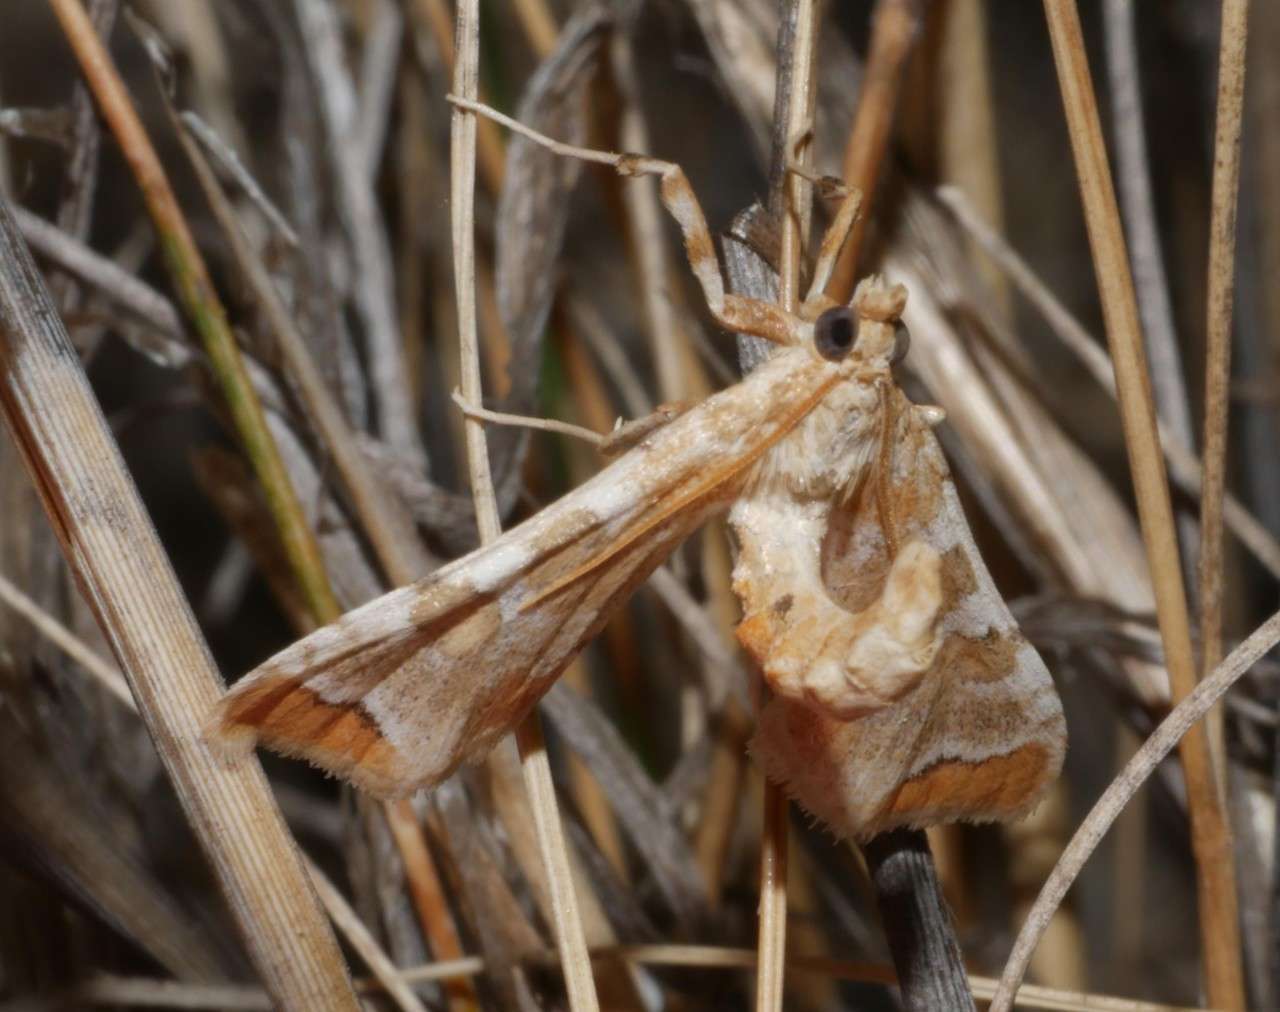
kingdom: Animalia
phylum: Arthropoda
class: Insecta
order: Lepidoptera
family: Crambidae
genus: Sceliodes
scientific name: Sceliodes cordalis
